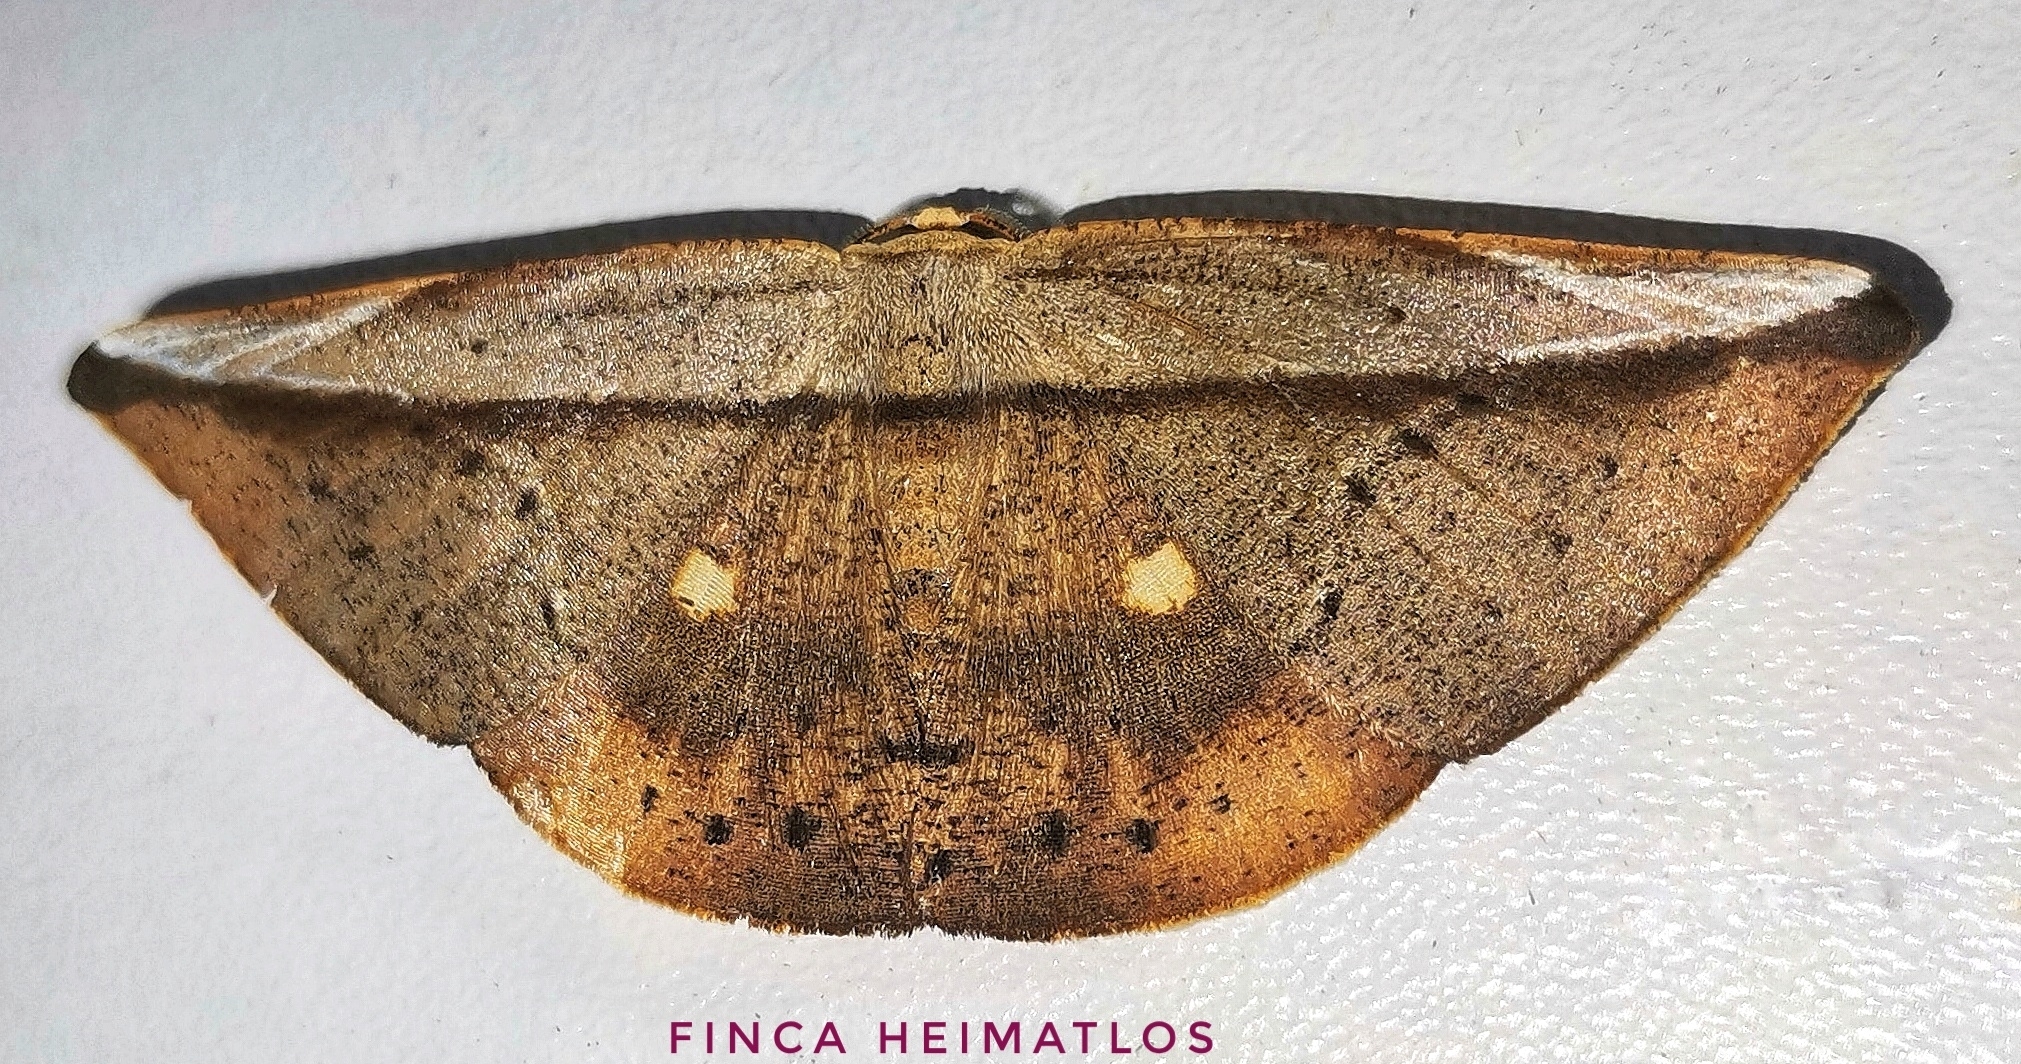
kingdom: Animalia
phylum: Arthropoda
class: Insecta
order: Lepidoptera
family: Geometridae
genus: Polla
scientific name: Polla varipes
